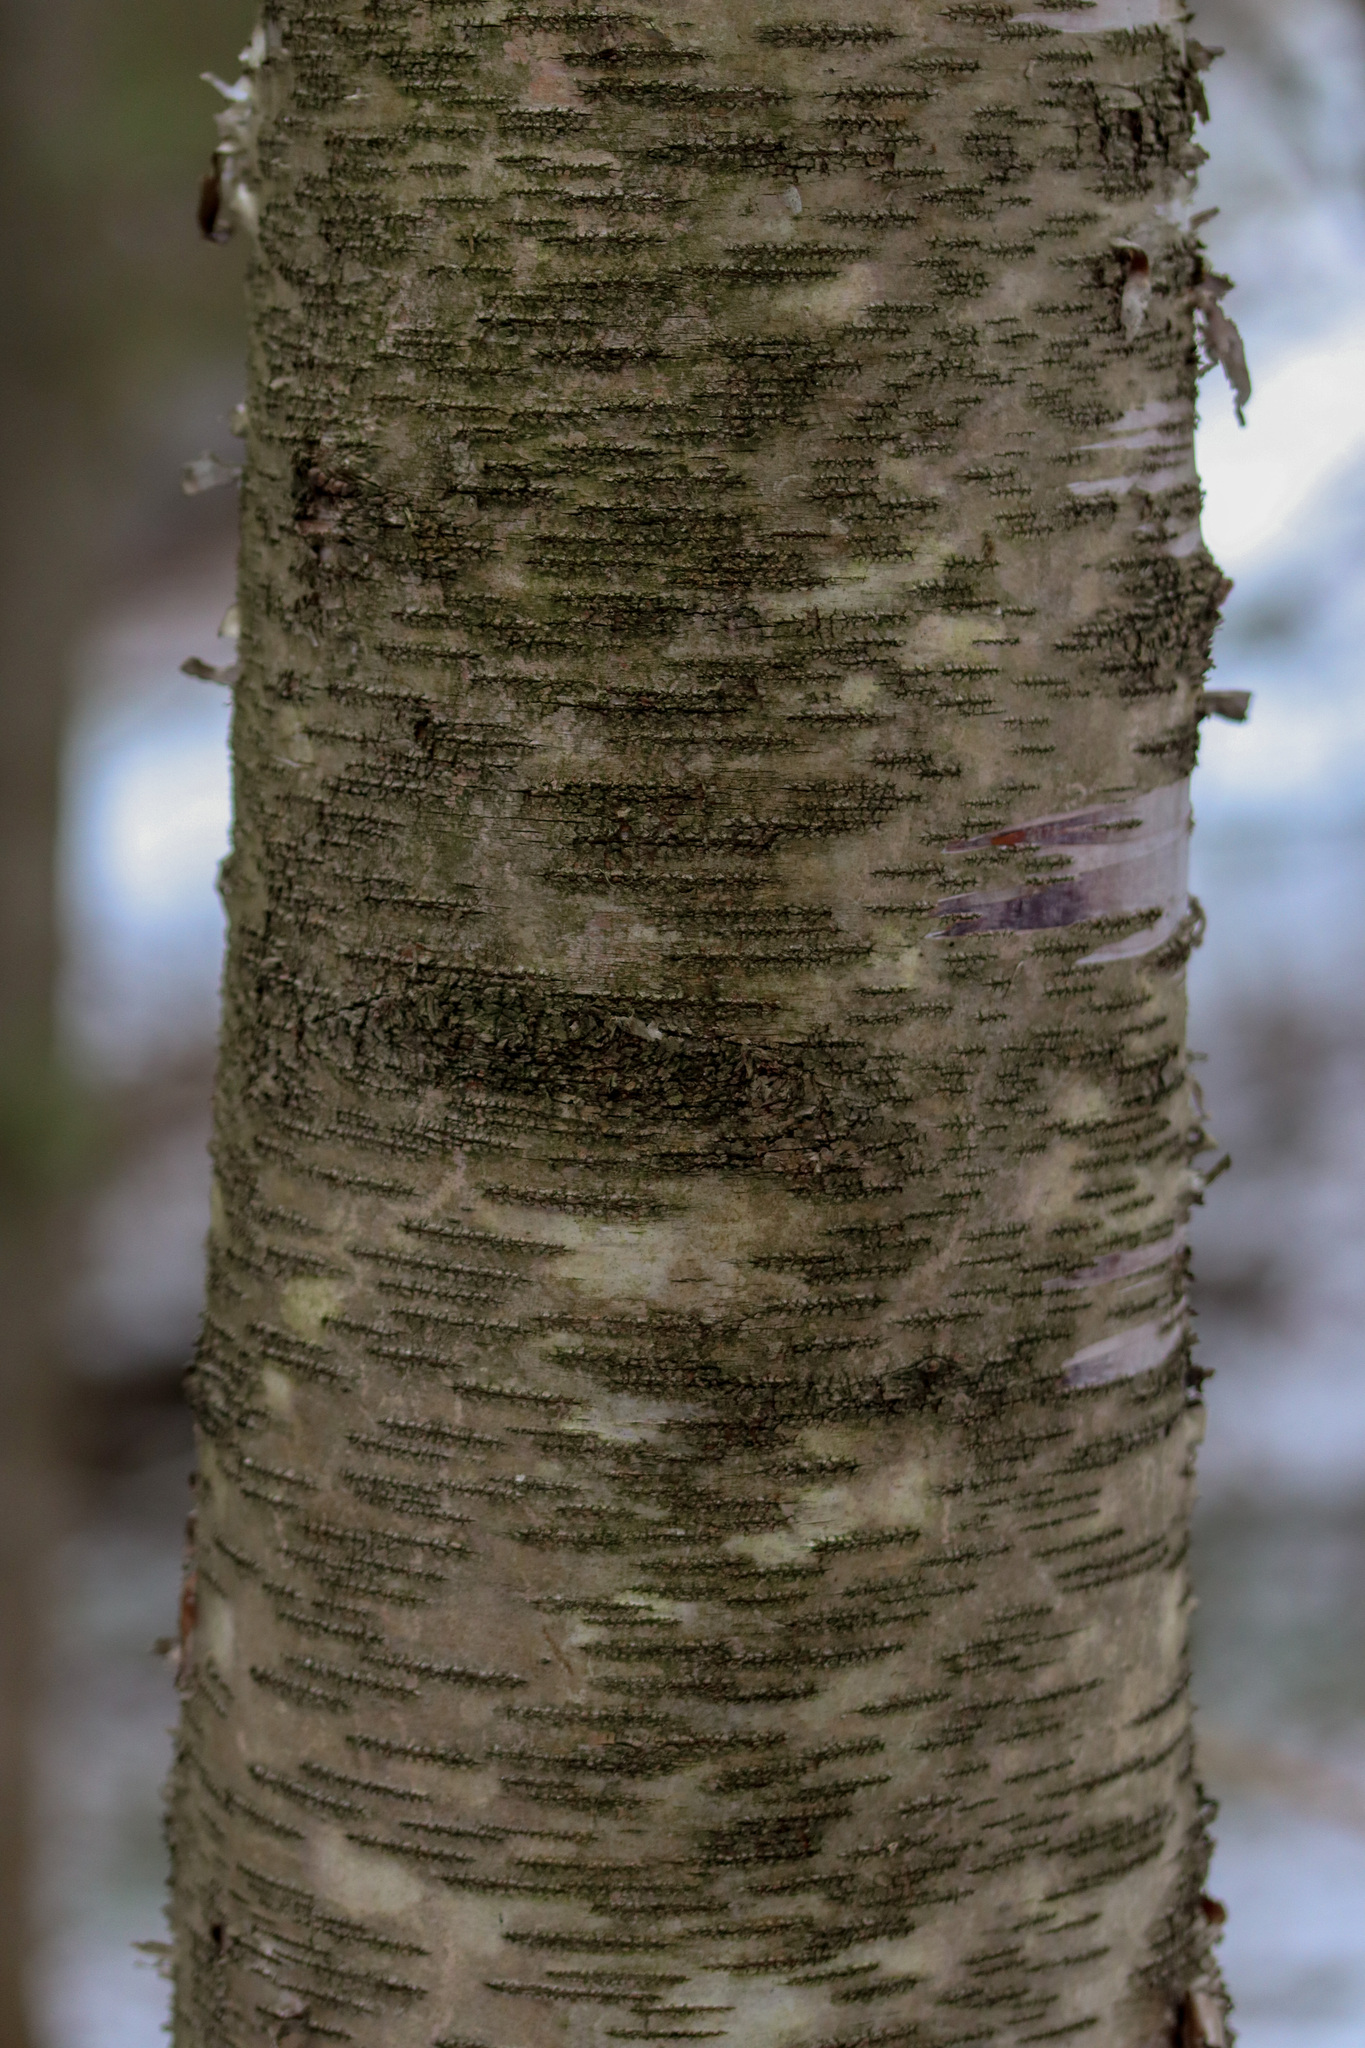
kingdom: Plantae
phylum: Tracheophyta
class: Magnoliopsida
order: Fagales
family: Betulaceae
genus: Betula
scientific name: Betula papyrifera
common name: Paper birch
